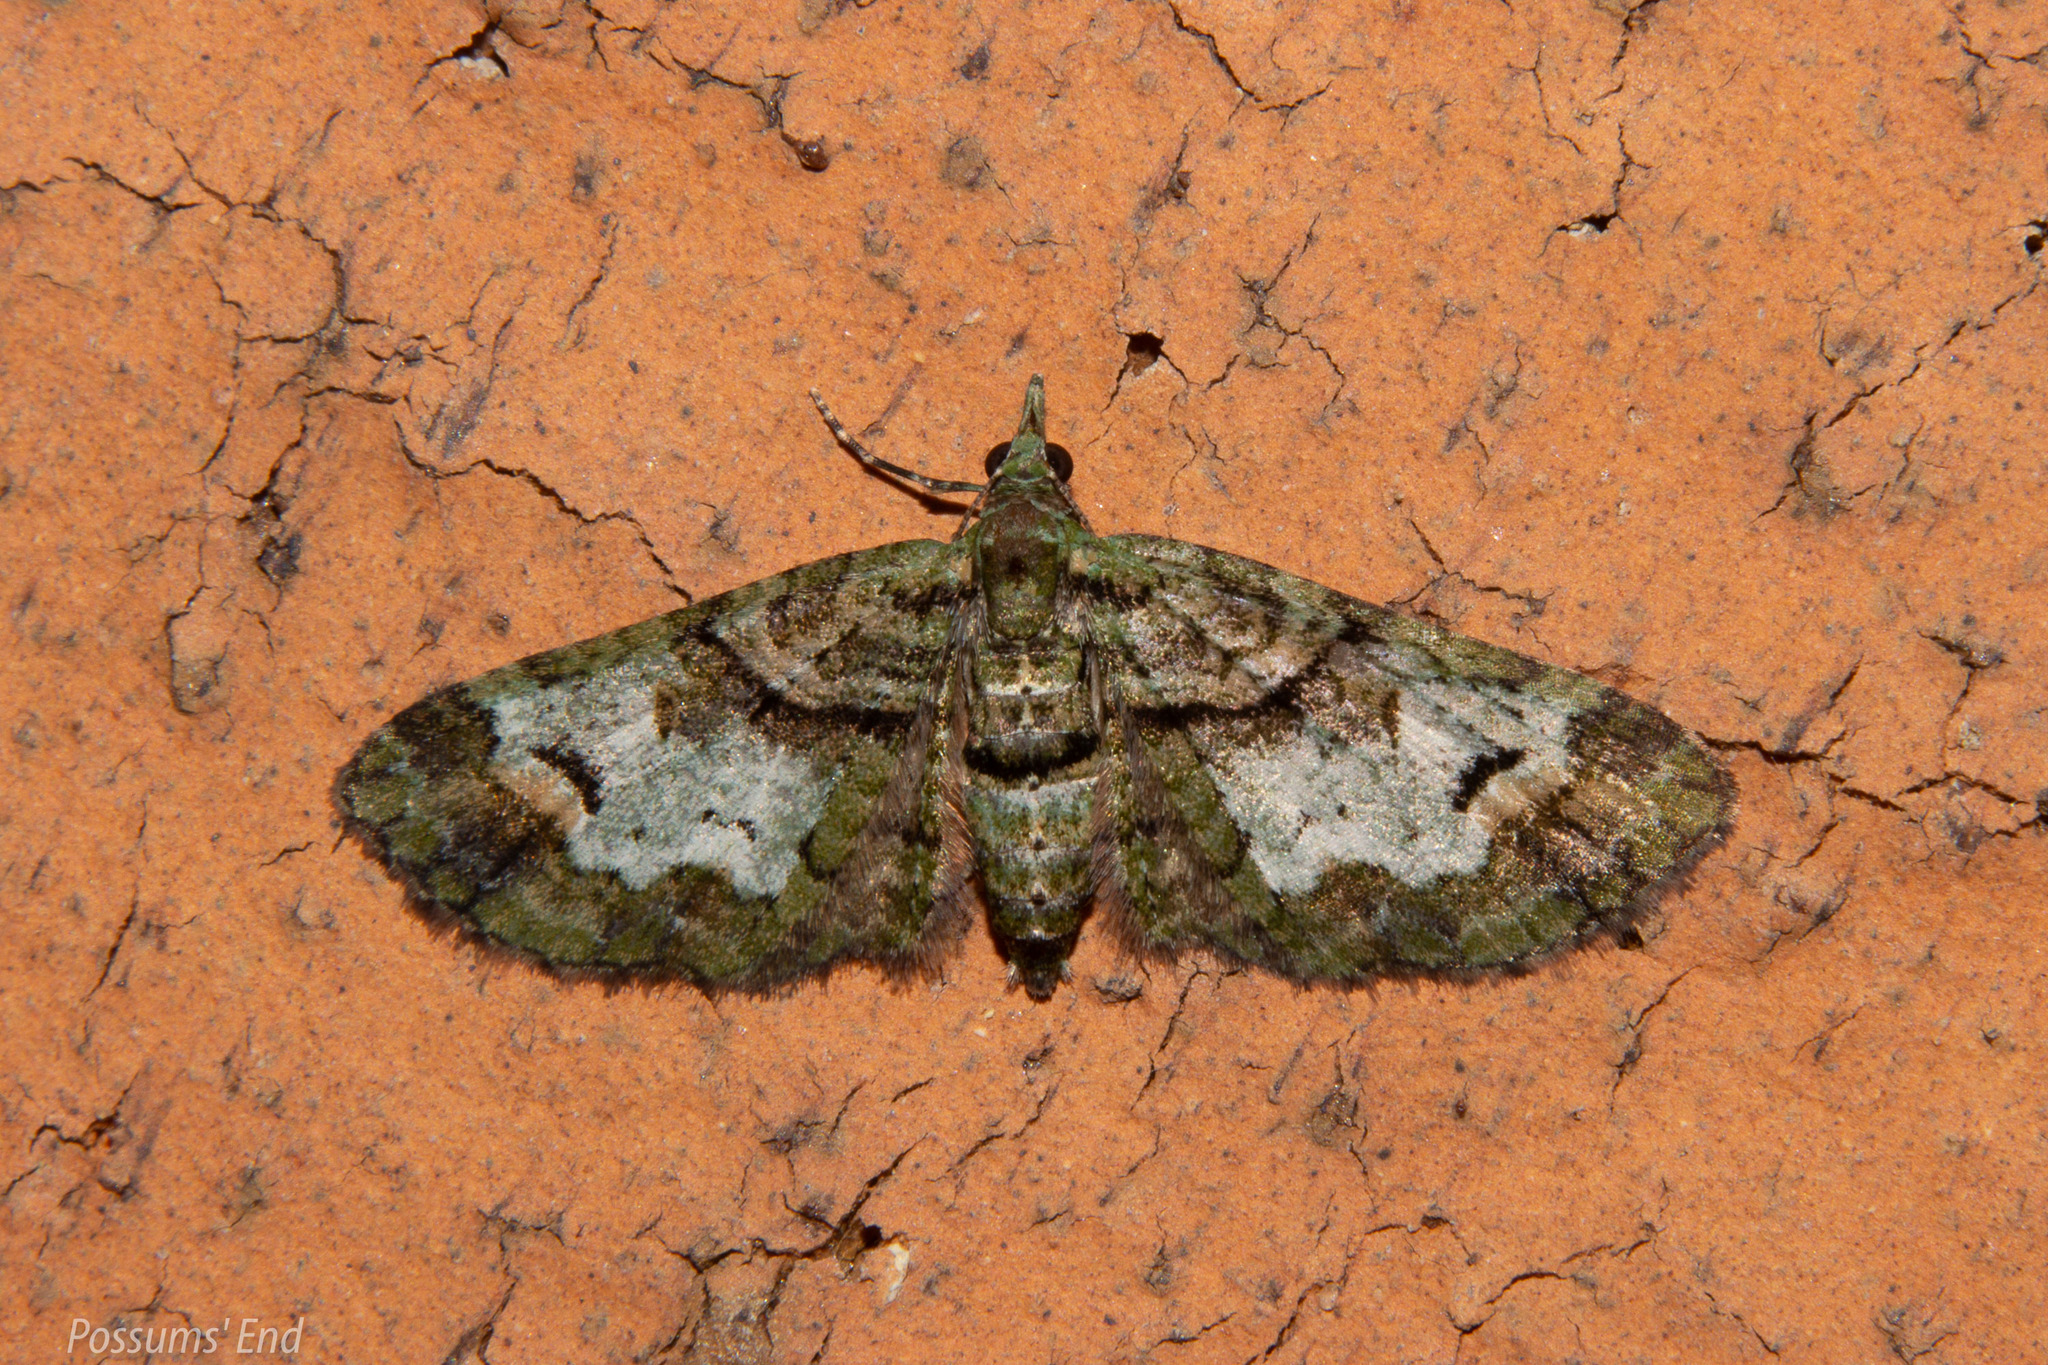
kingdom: Animalia
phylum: Arthropoda
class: Insecta
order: Lepidoptera
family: Geometridae
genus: Idaea
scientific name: Idaea mutanda
